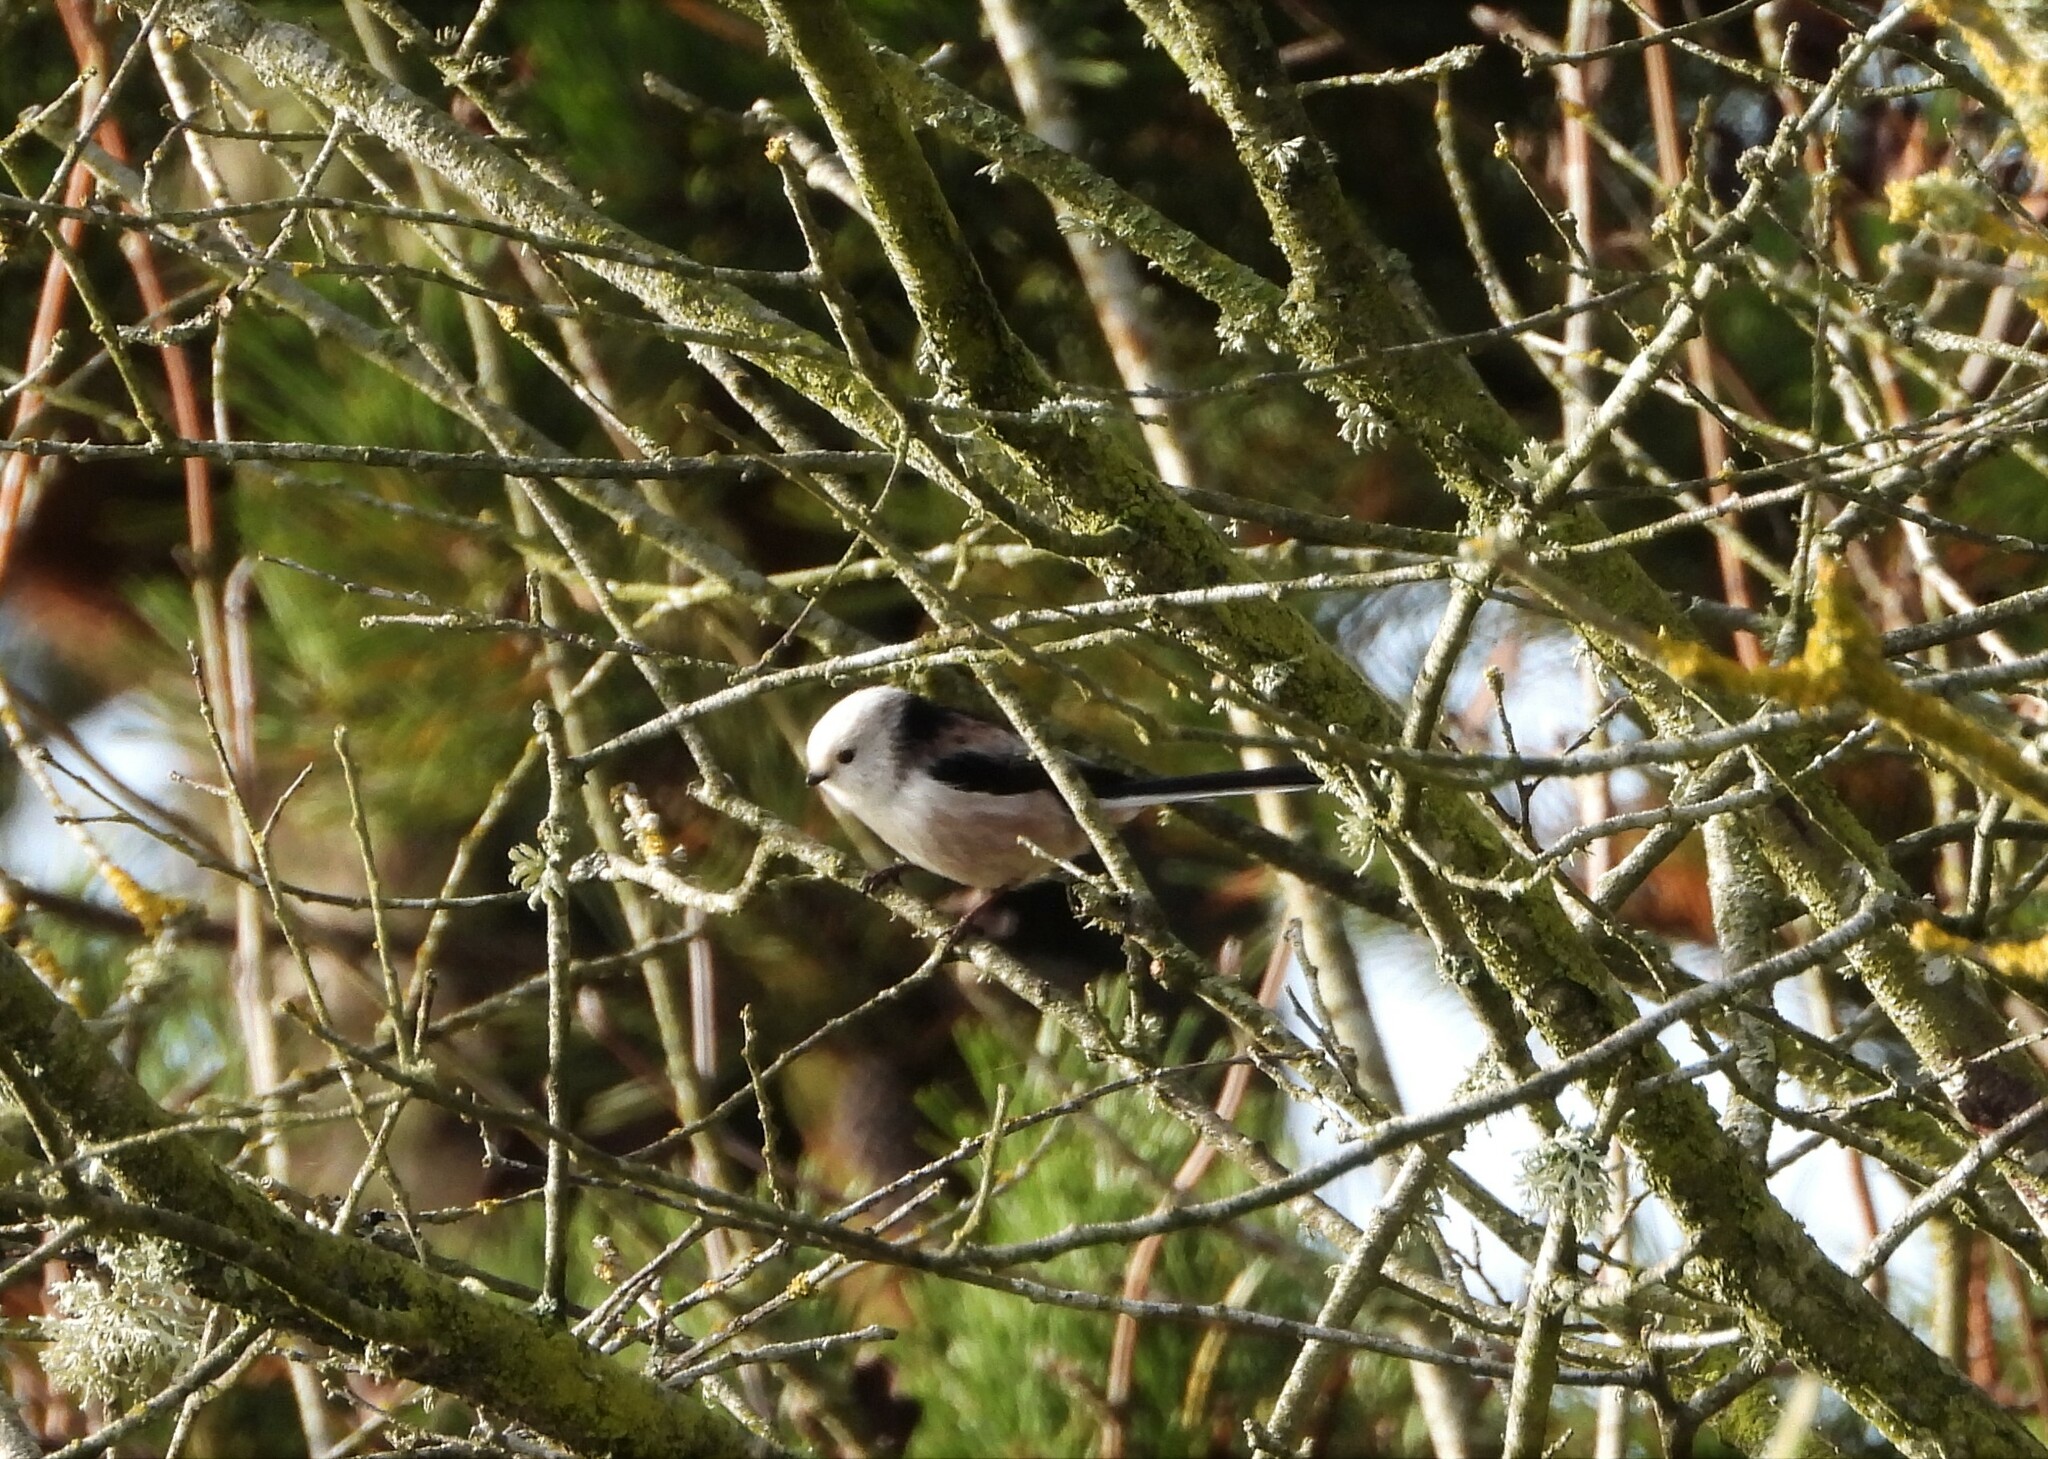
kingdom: Animalia
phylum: Chordata
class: Aves
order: Passeriformes
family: Aegithalidae
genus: Aegithalos
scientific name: Aegithalos caudatus
